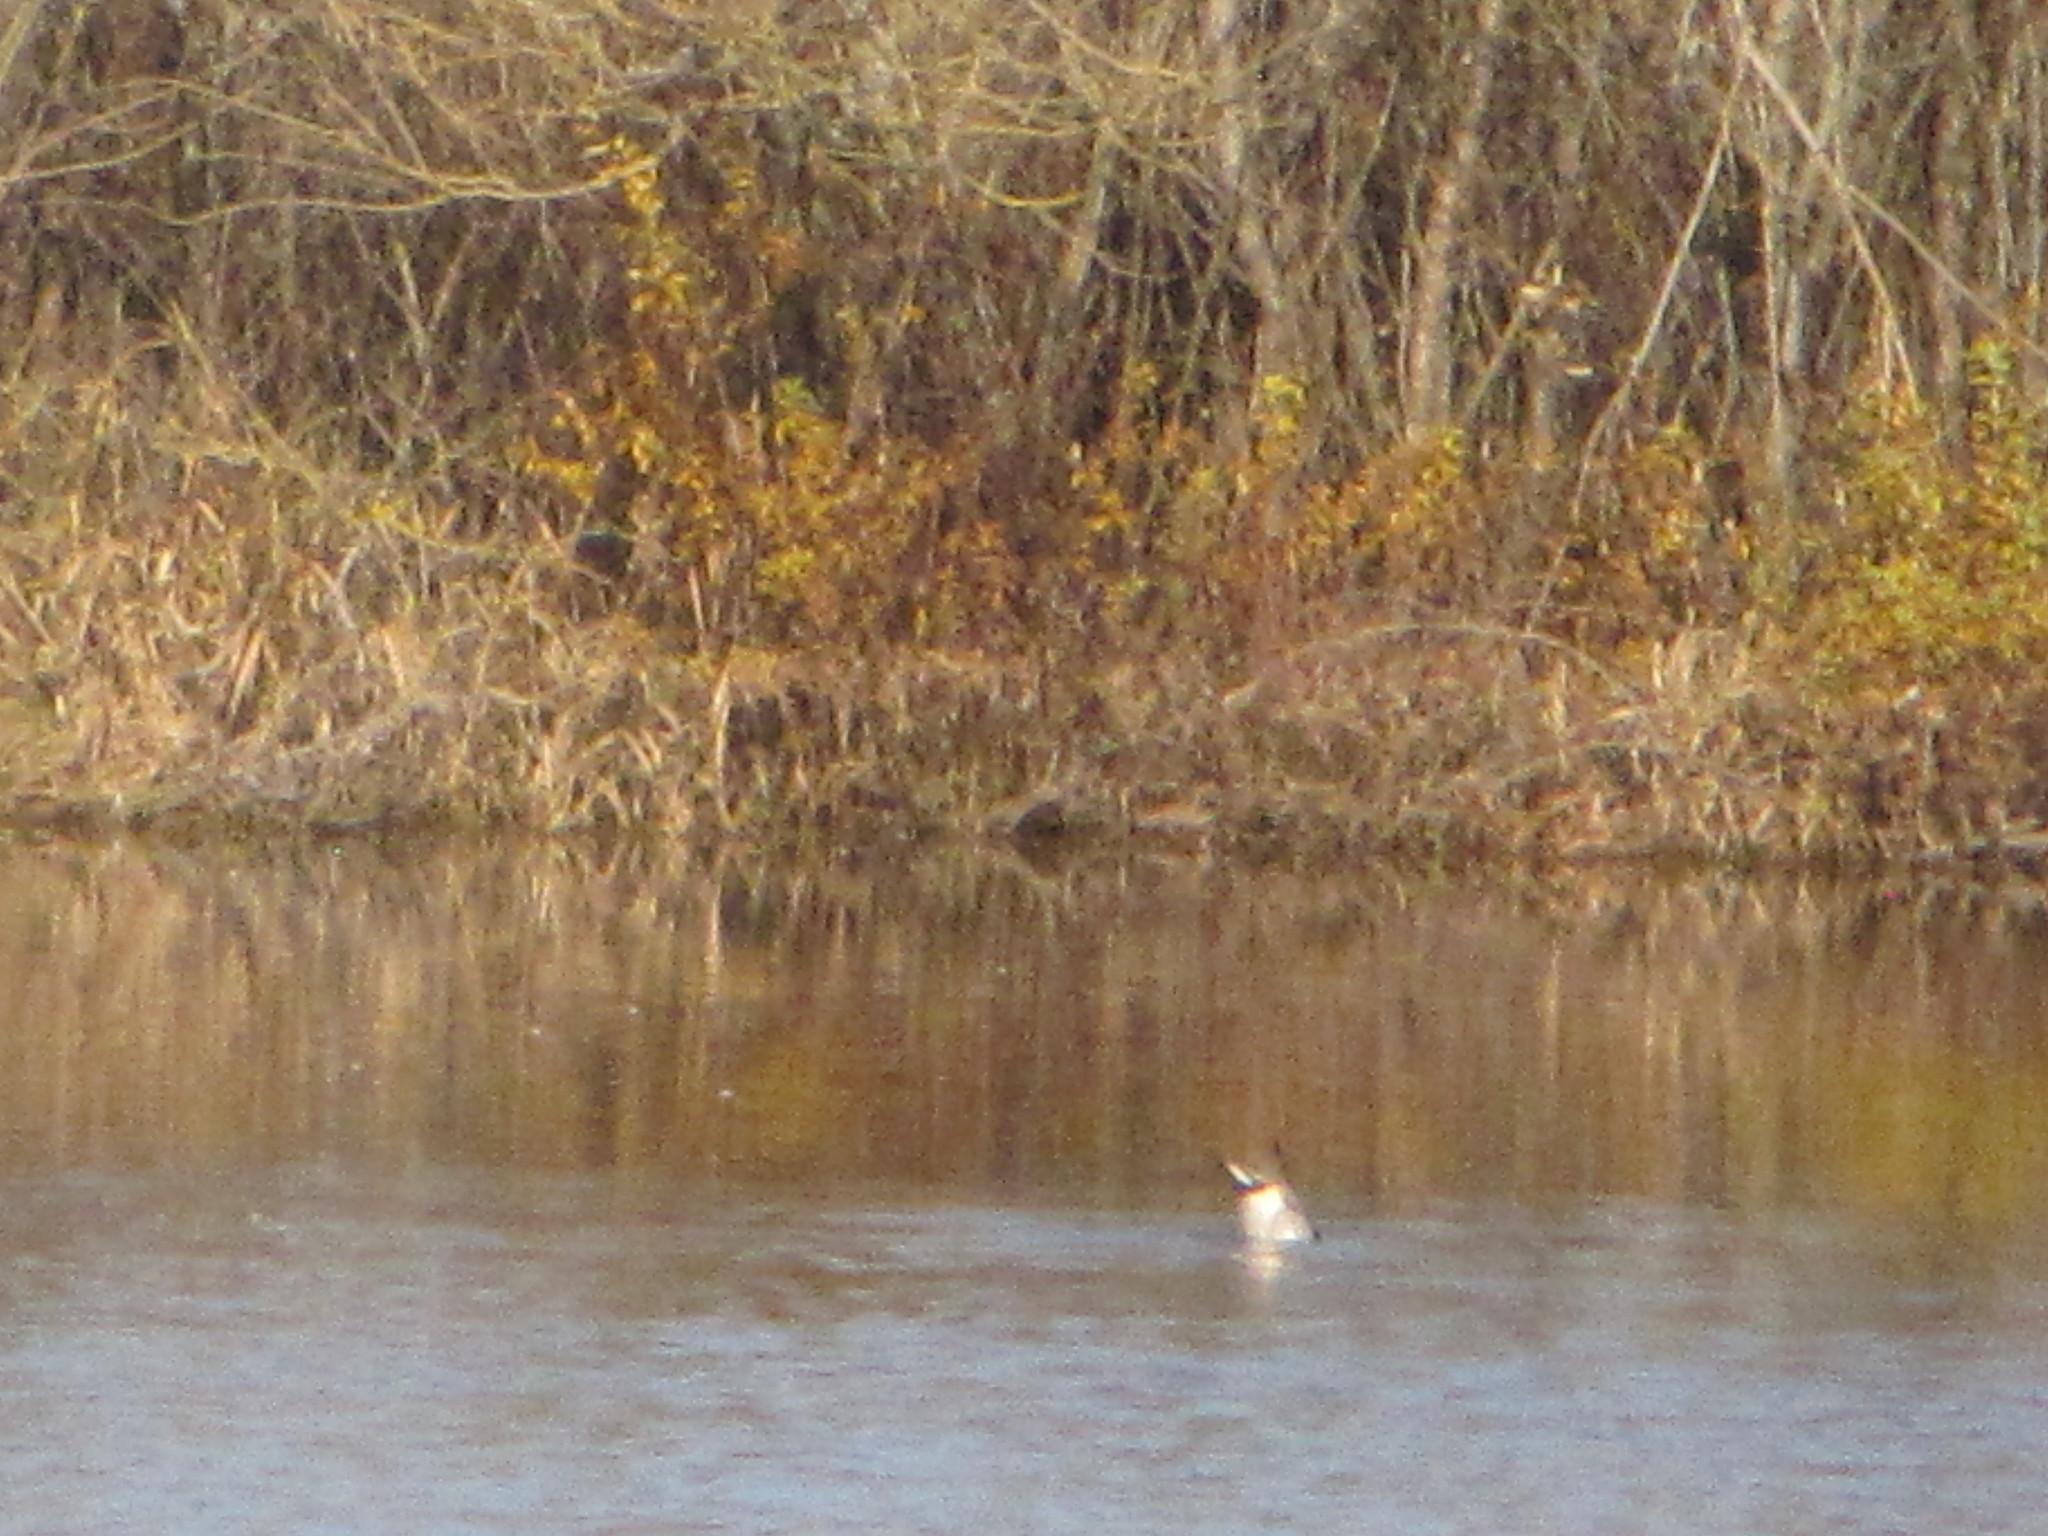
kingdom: Animalia
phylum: Chordata
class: Aves
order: Anseriformes
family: Anatidae
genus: Anas
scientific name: Anas acuta
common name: Northern pintail
